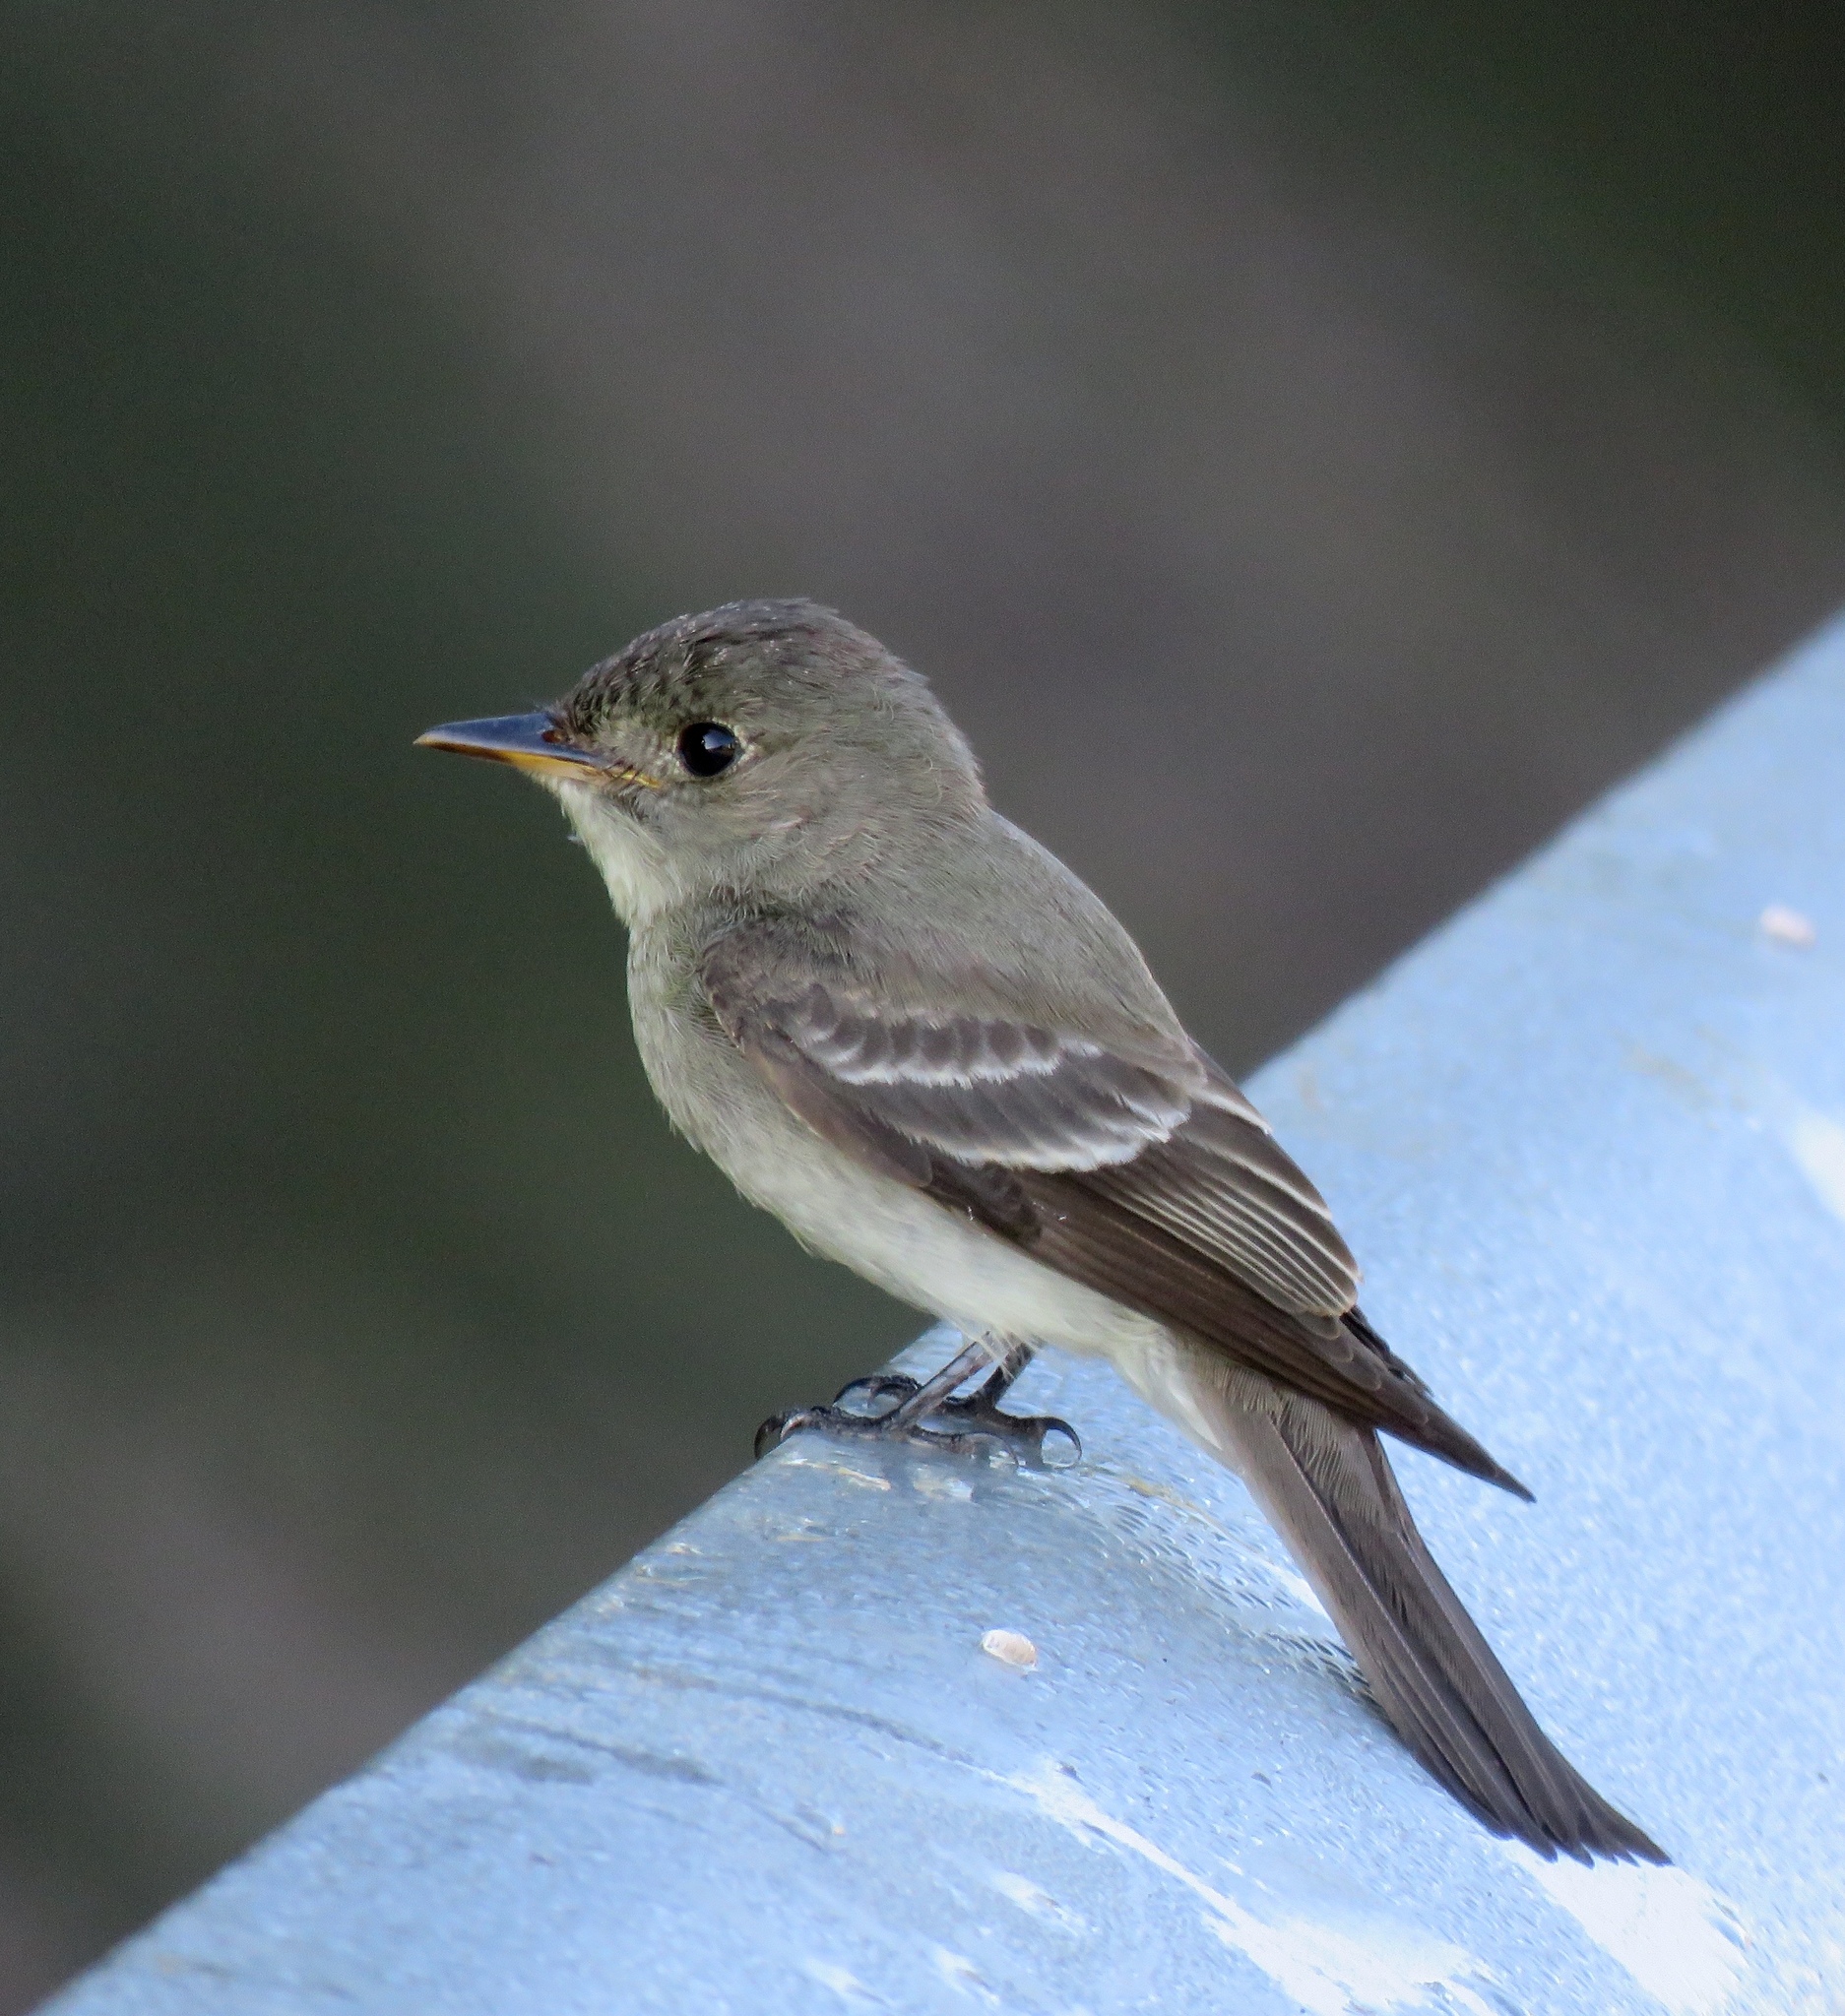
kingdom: Animalia
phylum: Chordata
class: Aves
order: Passeriformes
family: Tyrannidae
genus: Contopus
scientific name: Contopus virens
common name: Eastern wood-pewee
